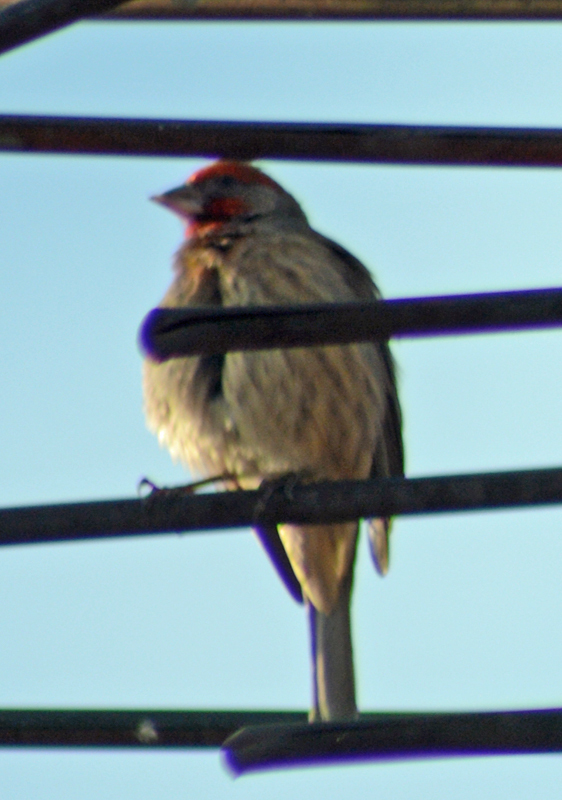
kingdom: Animalia
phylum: Chordata
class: Aves
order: Passeriformes
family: Fringillidae
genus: Haemorhous
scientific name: Haemorhous mexicanus
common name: House finch
